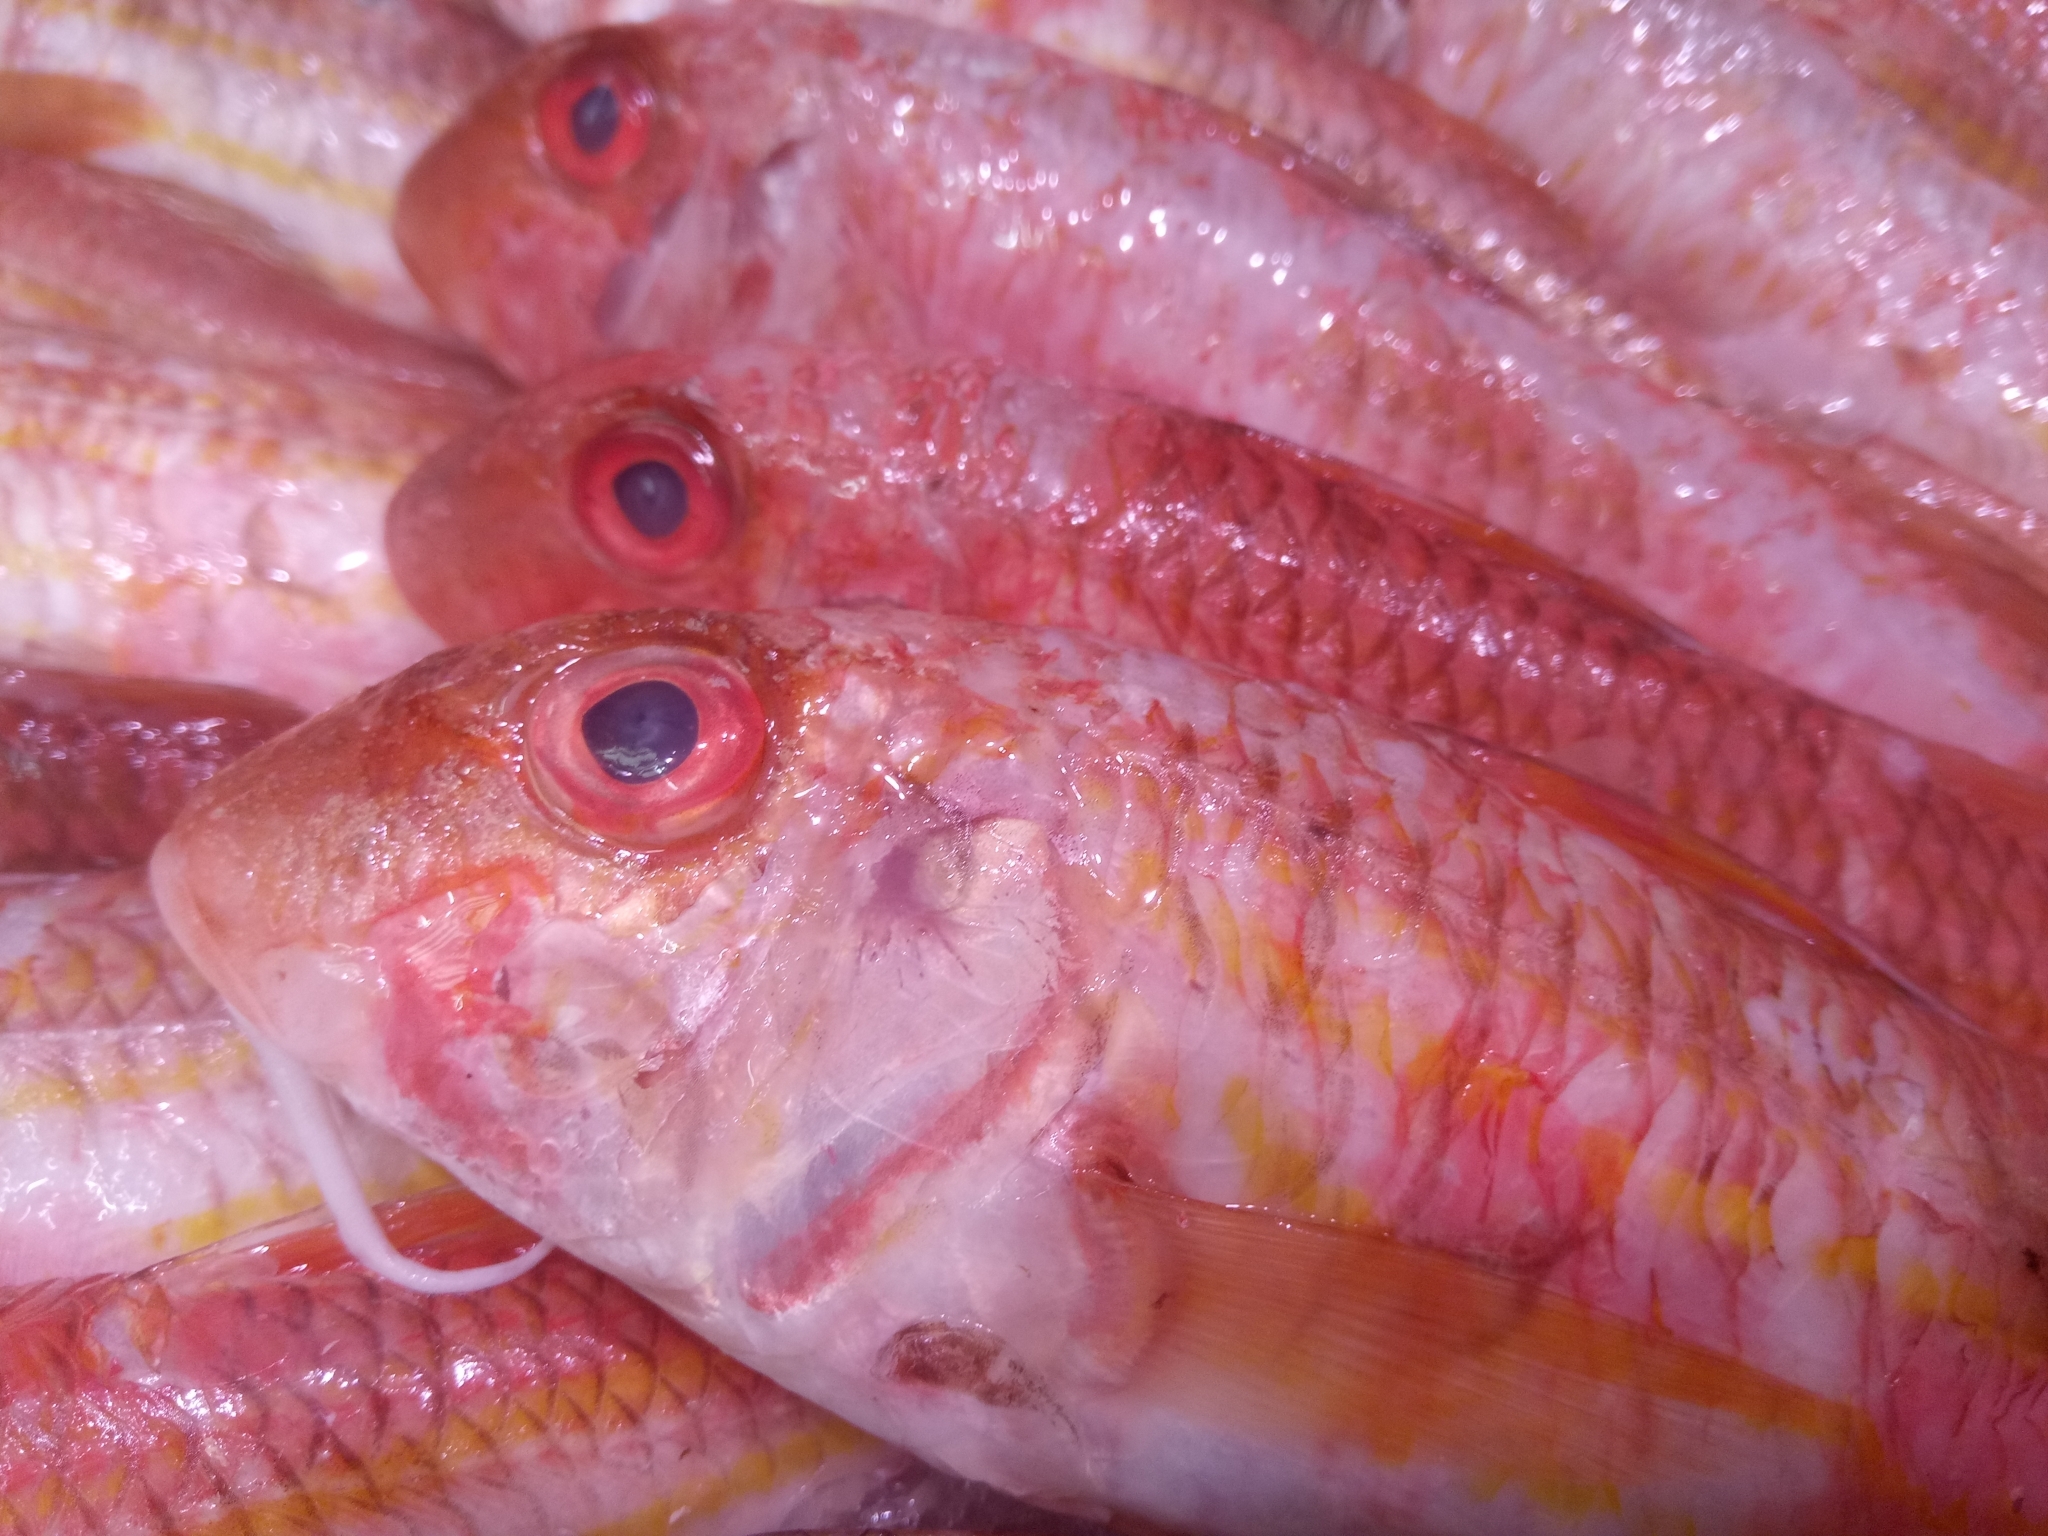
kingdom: Animalia
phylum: Chordata
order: Perciformes
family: Mullidae
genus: Mullus
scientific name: Mullus
